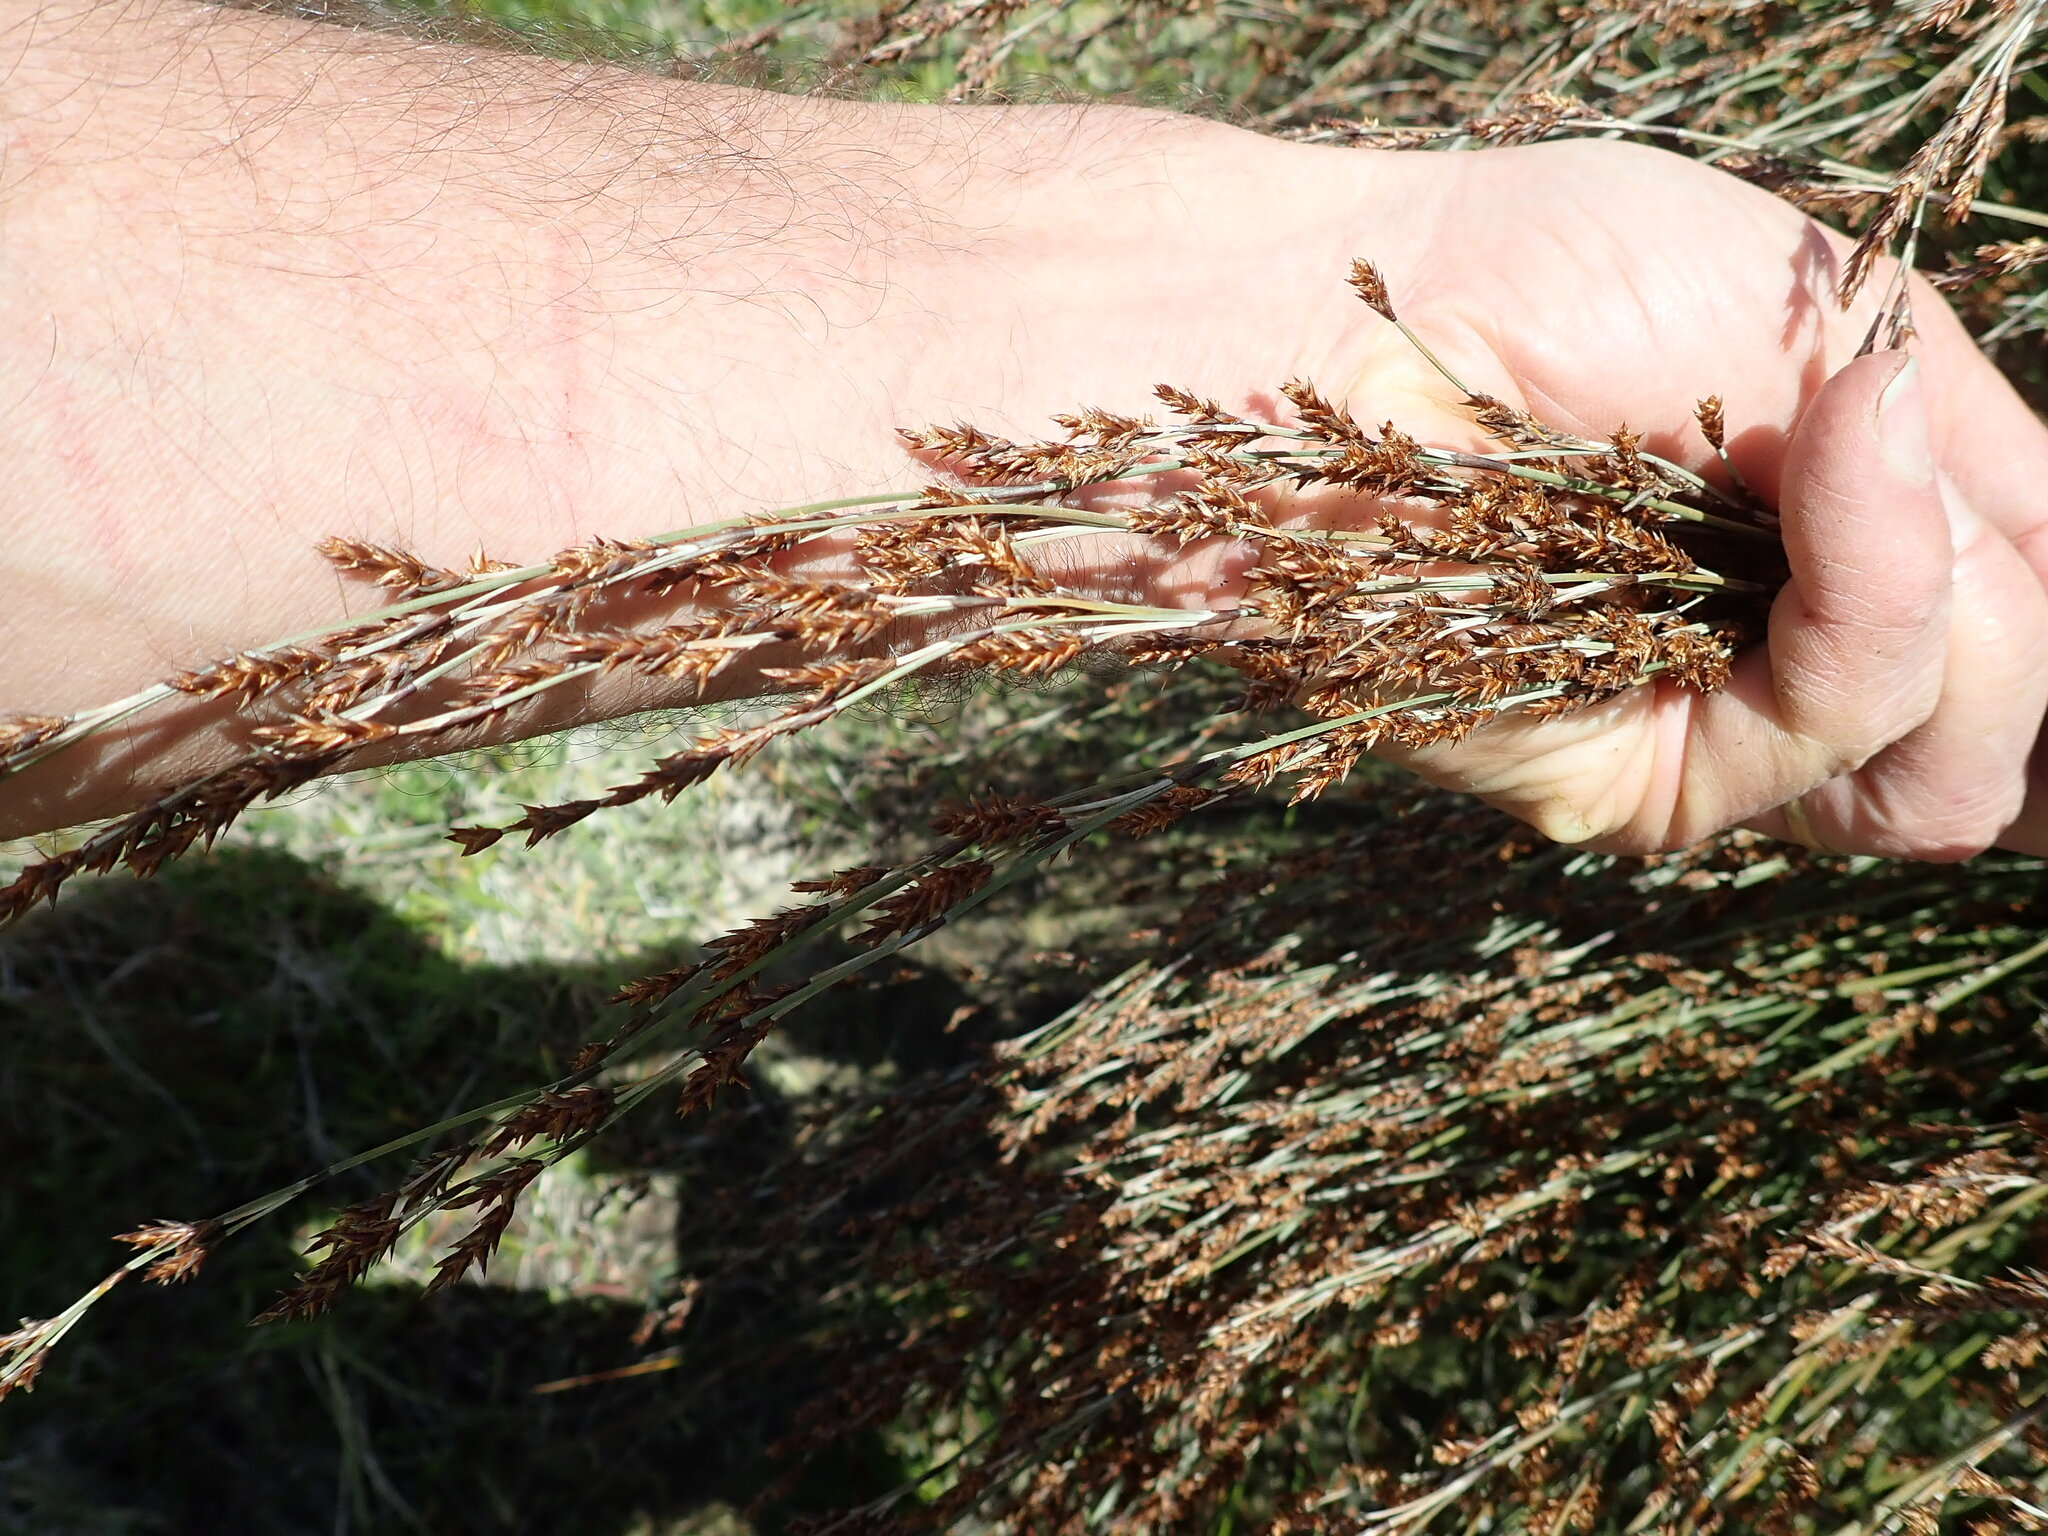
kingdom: Plantae
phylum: Tracheophyta
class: Liliopsida
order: Poales
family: Restionaceae
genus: Apodasmia
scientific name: Apodasmia similis
